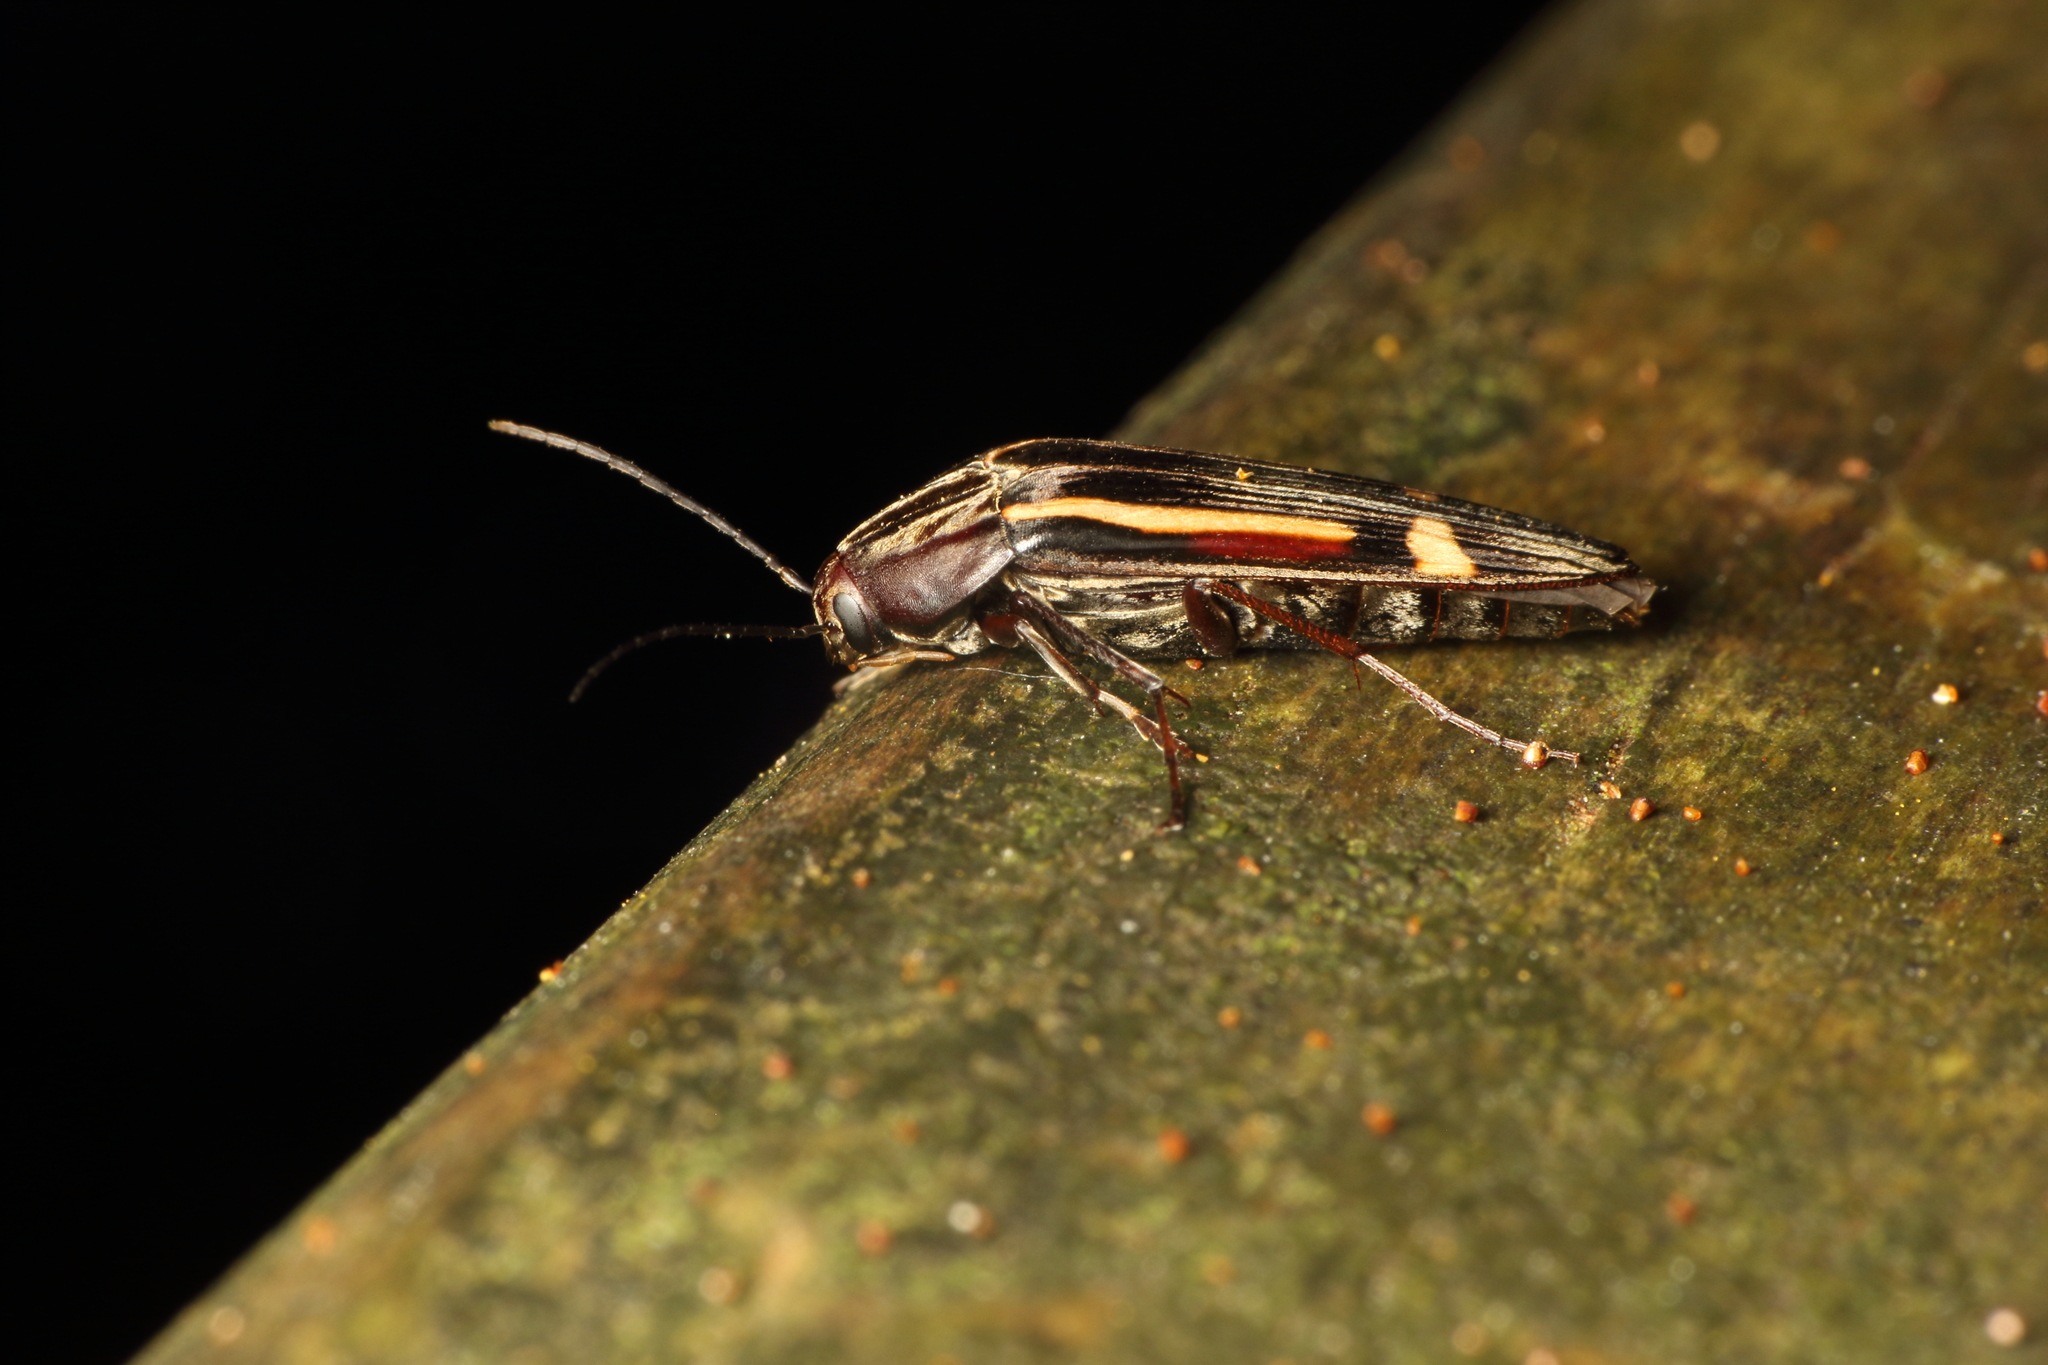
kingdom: Animalia
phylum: Arthropoda
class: Insecta
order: Coleoptera
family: Melandryidae
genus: Ctenoplectron
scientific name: Ctenoplectron
